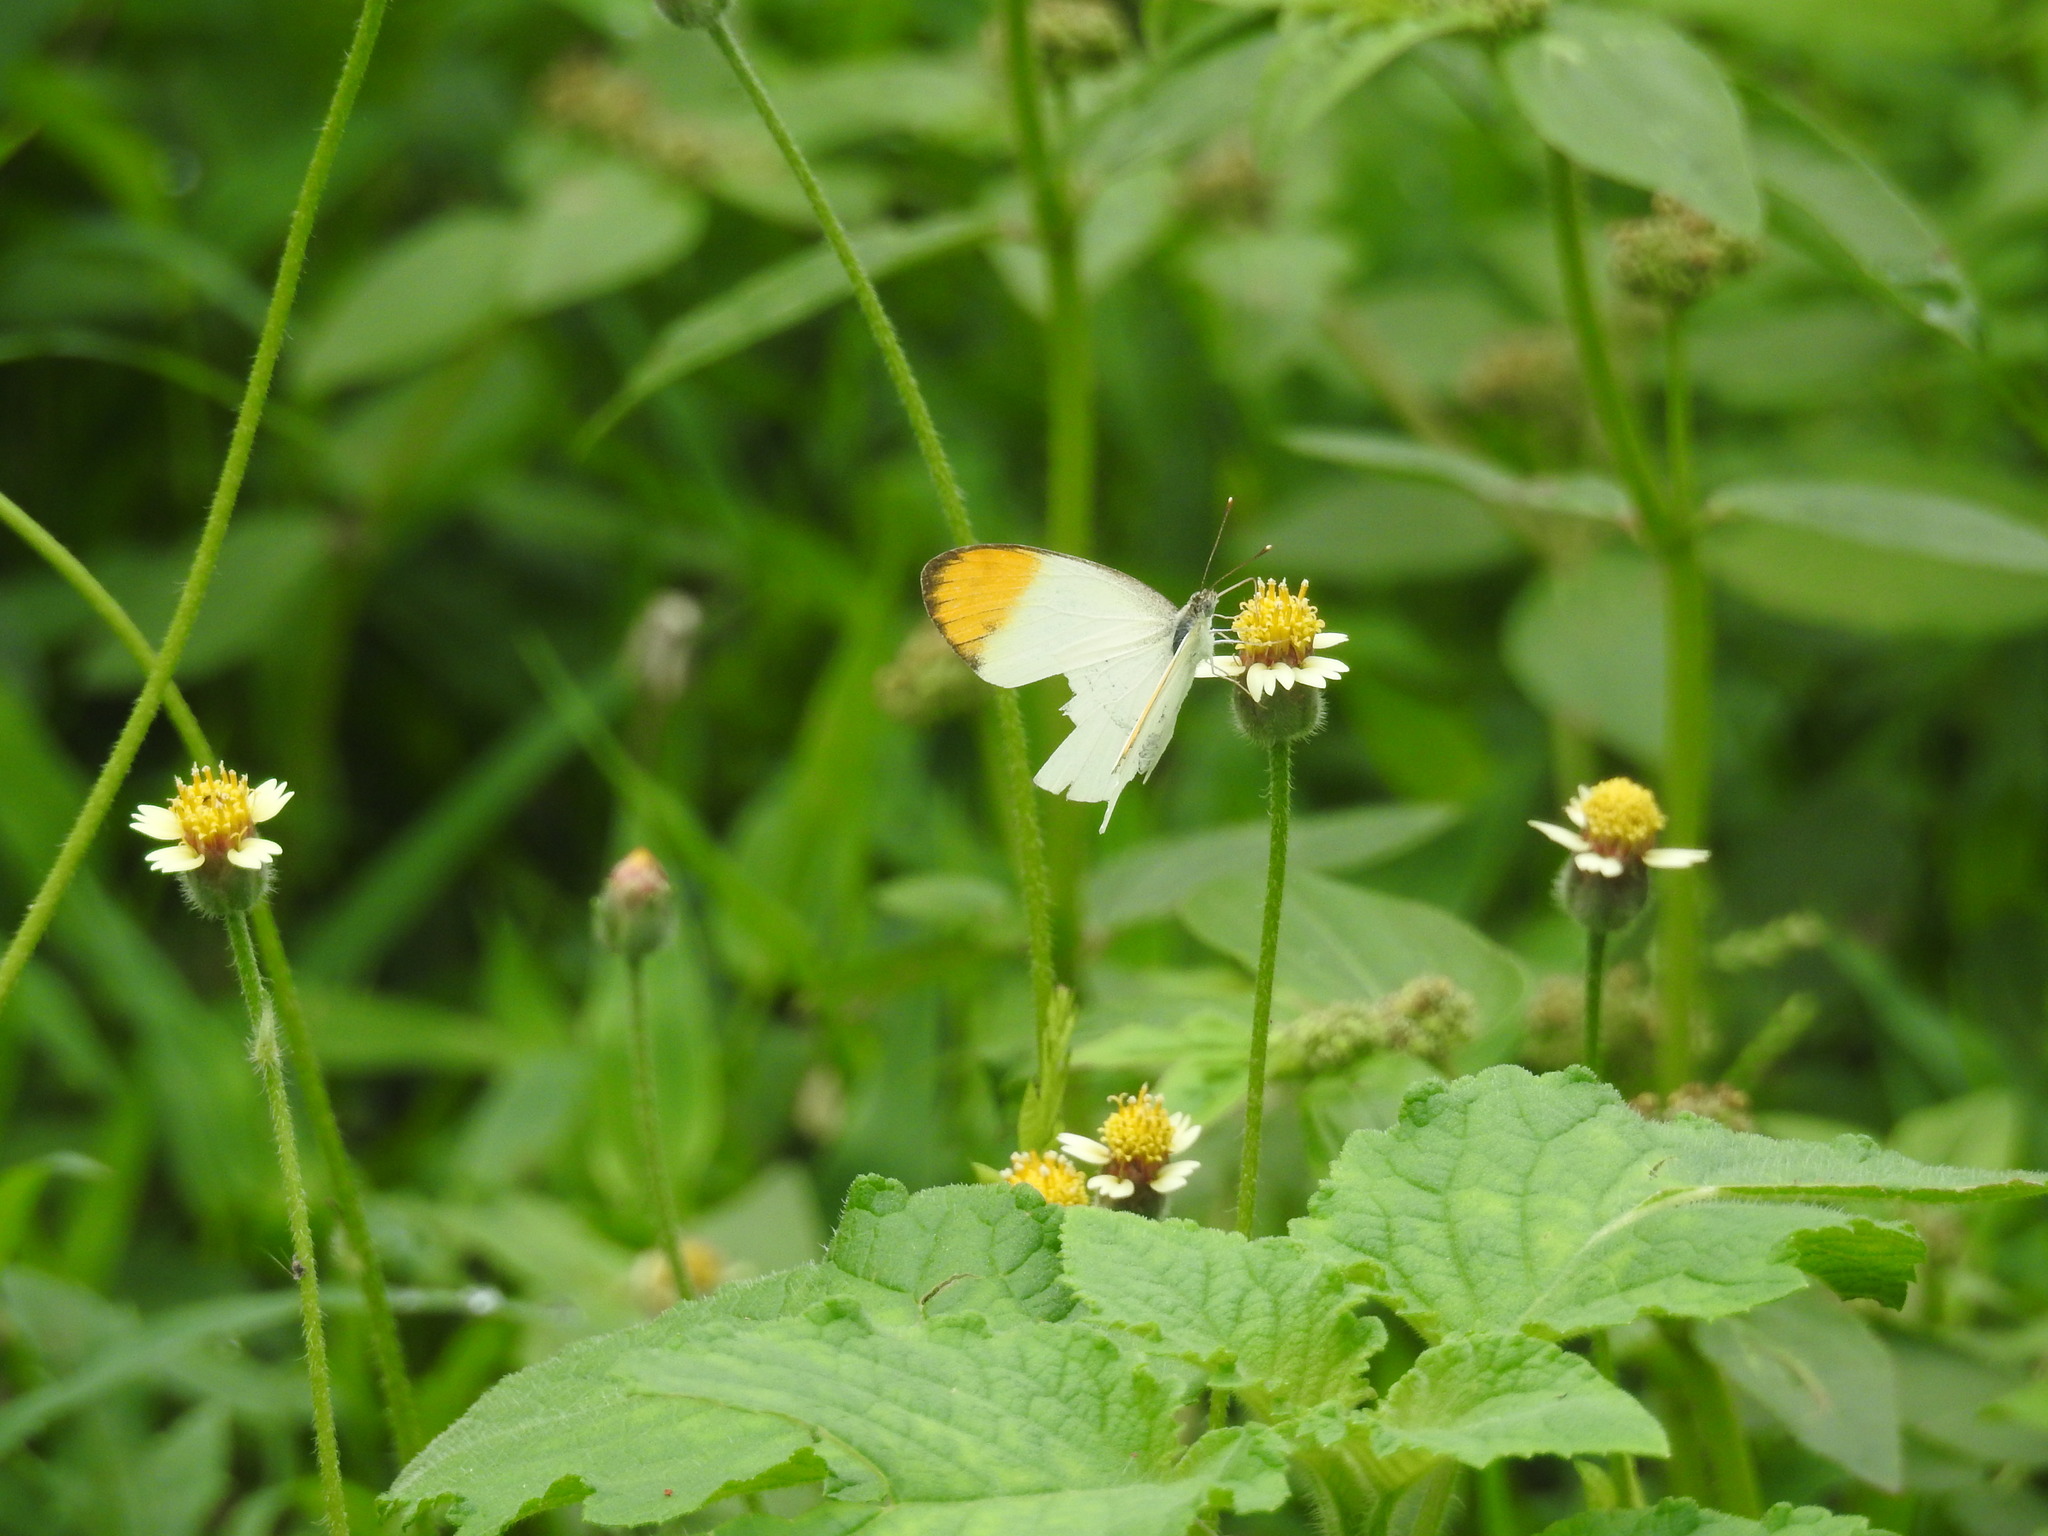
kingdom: Animalia
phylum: Arthropoda
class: Insecta
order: Lepidoptera
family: Pieridae
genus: Colotis
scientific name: Colotis aurora
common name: Plain orange-tip
